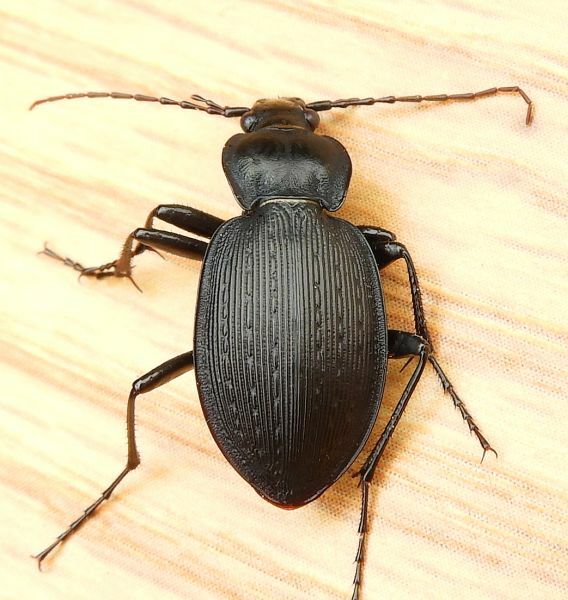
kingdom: Animalia
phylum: Arthropoda
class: Insecta
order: Coleoptera
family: Carabidae
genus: Carabus
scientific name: Carabus goryi
